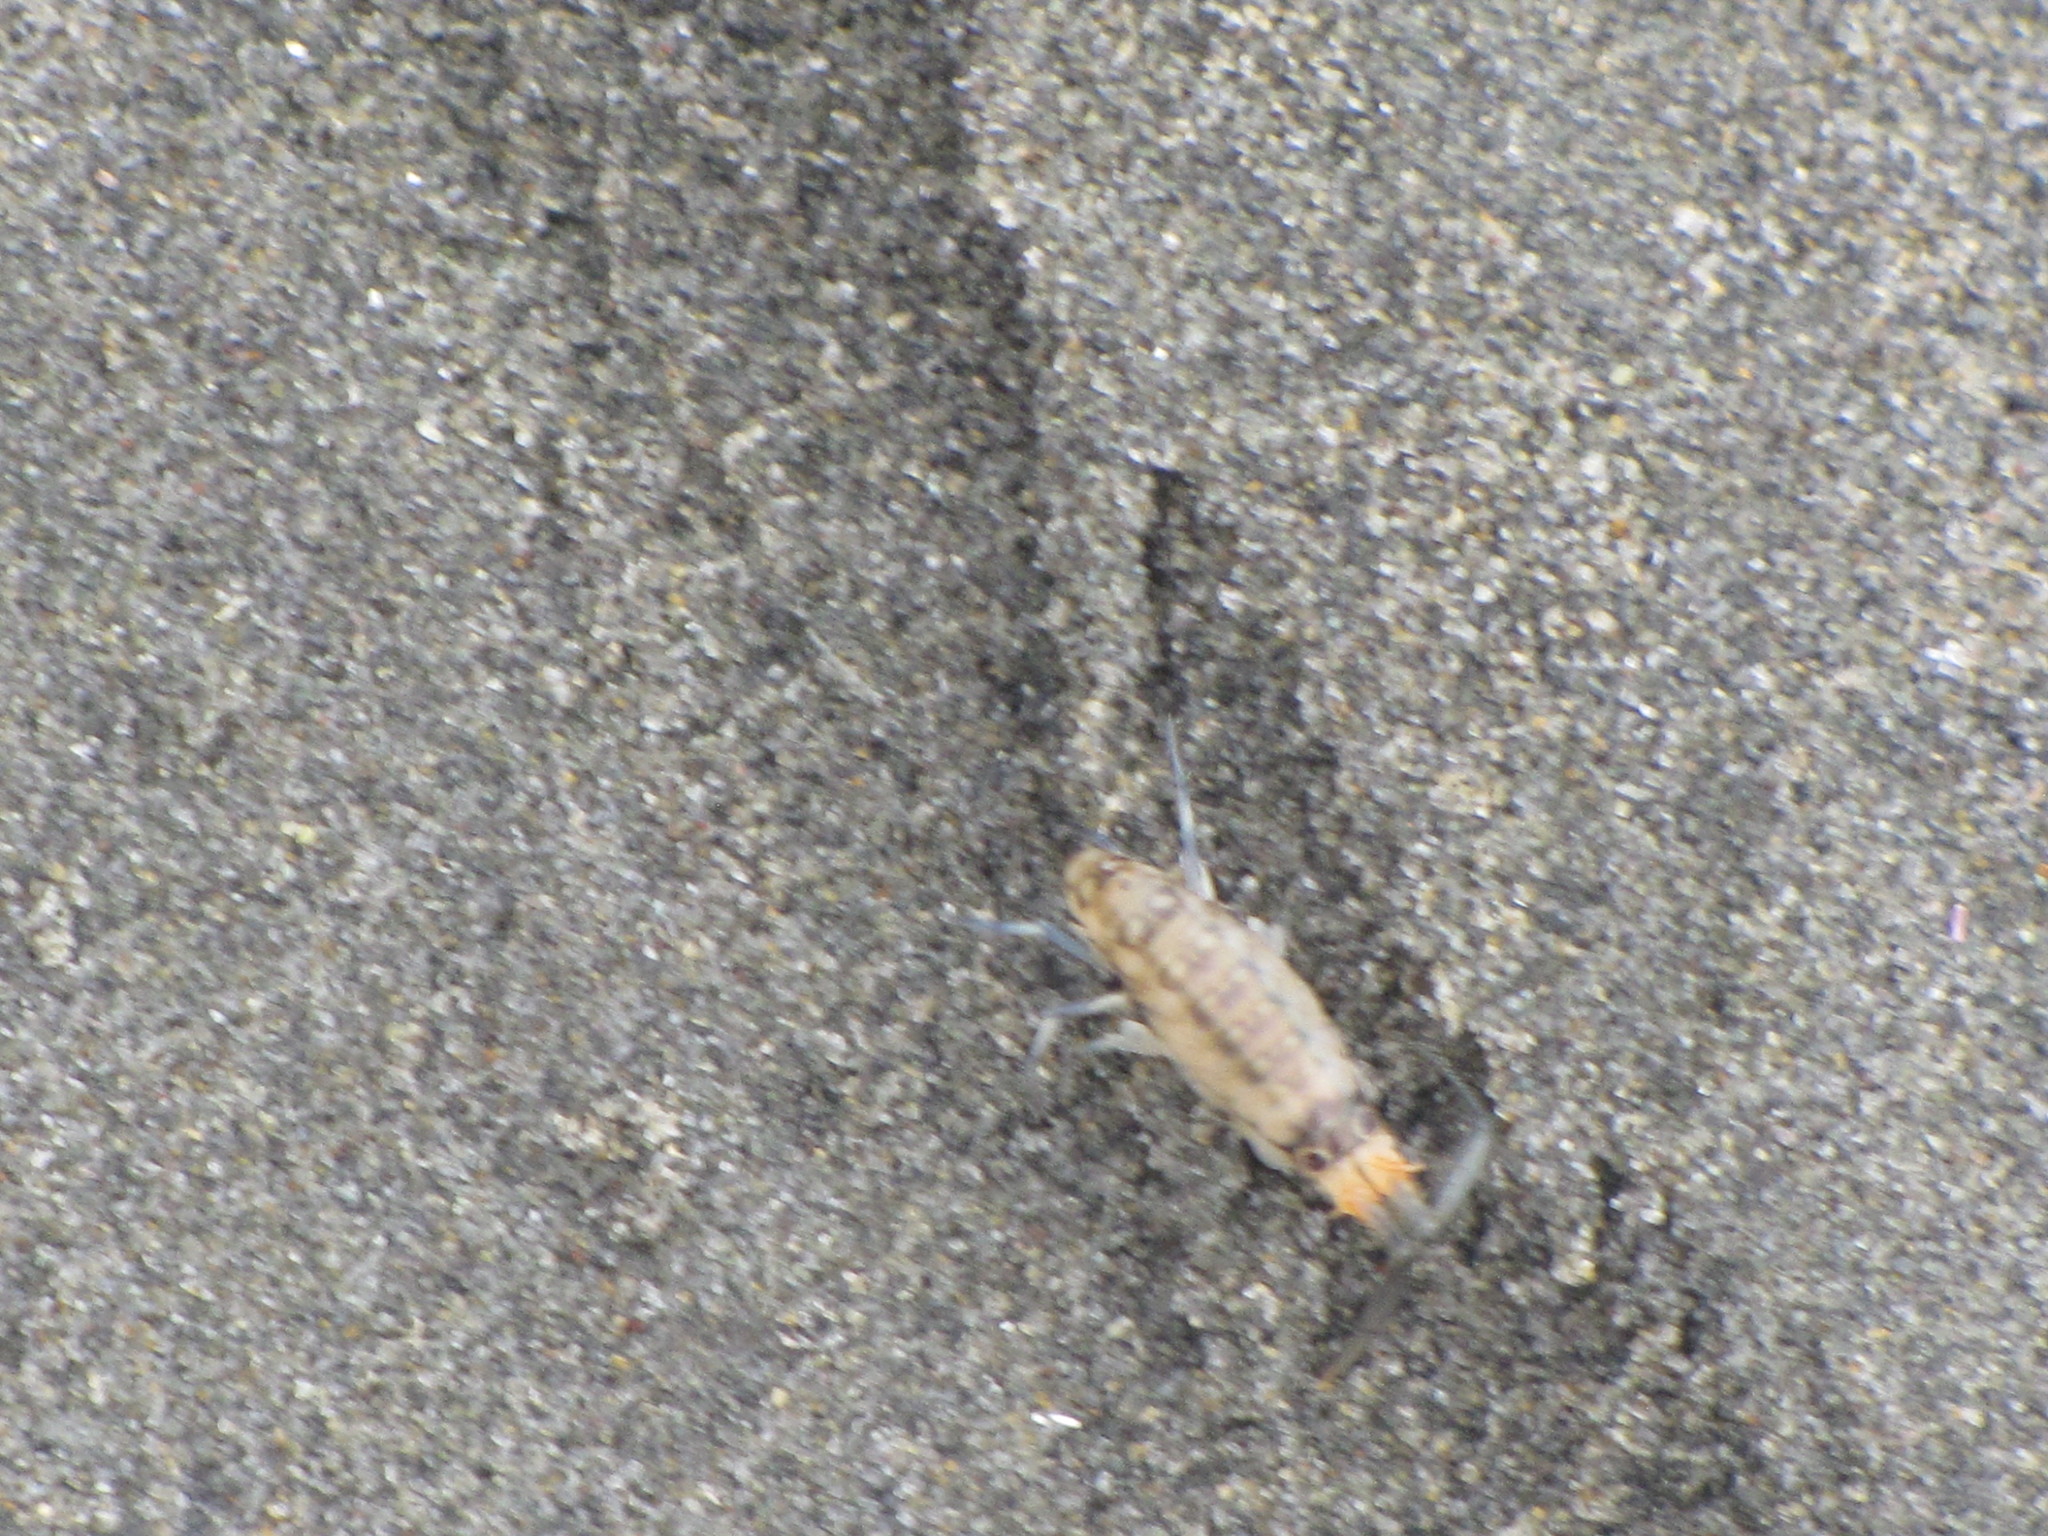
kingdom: Animalia
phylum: Arthropoda
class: Malacostraca
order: Amphipoda
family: Talitridae
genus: Megalorchestia
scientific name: Megalorchestia pugettensis
